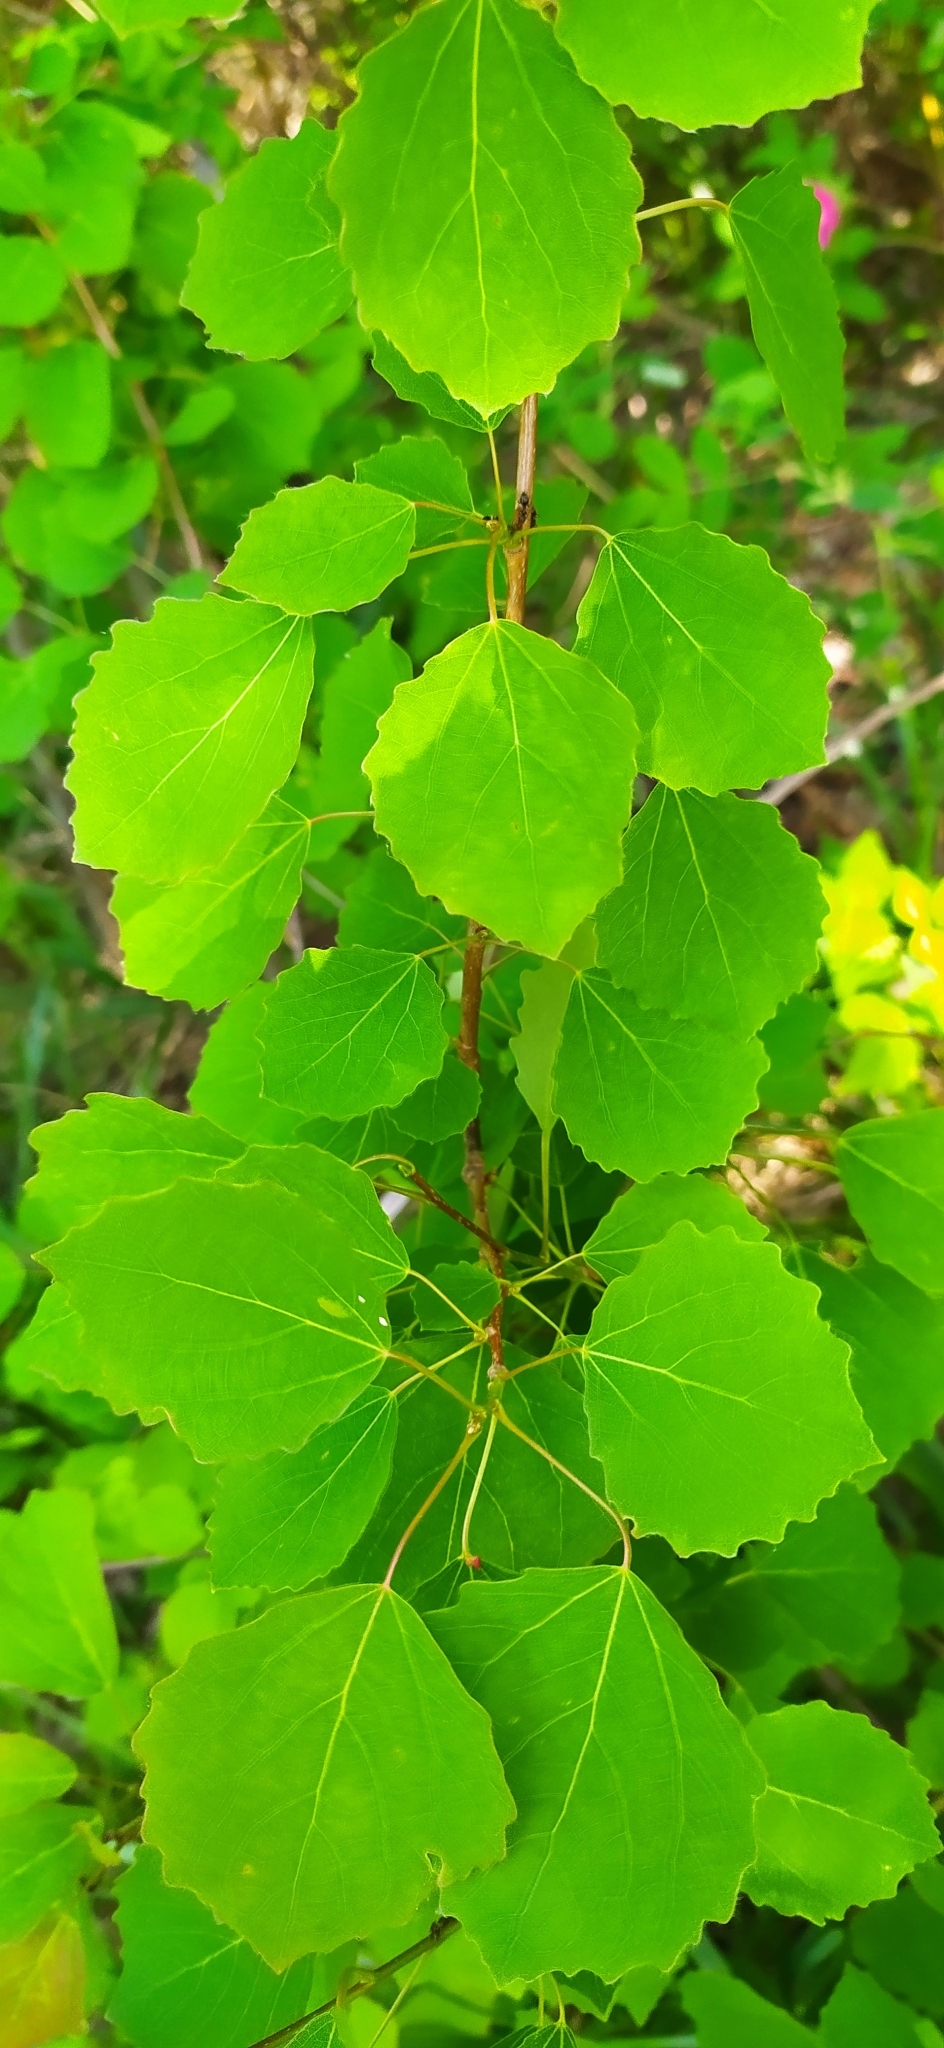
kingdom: Plantae
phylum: Tracheophyta
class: Magnoliopsida
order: Malpighiales
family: Salicaceae
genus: Populus
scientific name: Populus tremula
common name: European aspen
